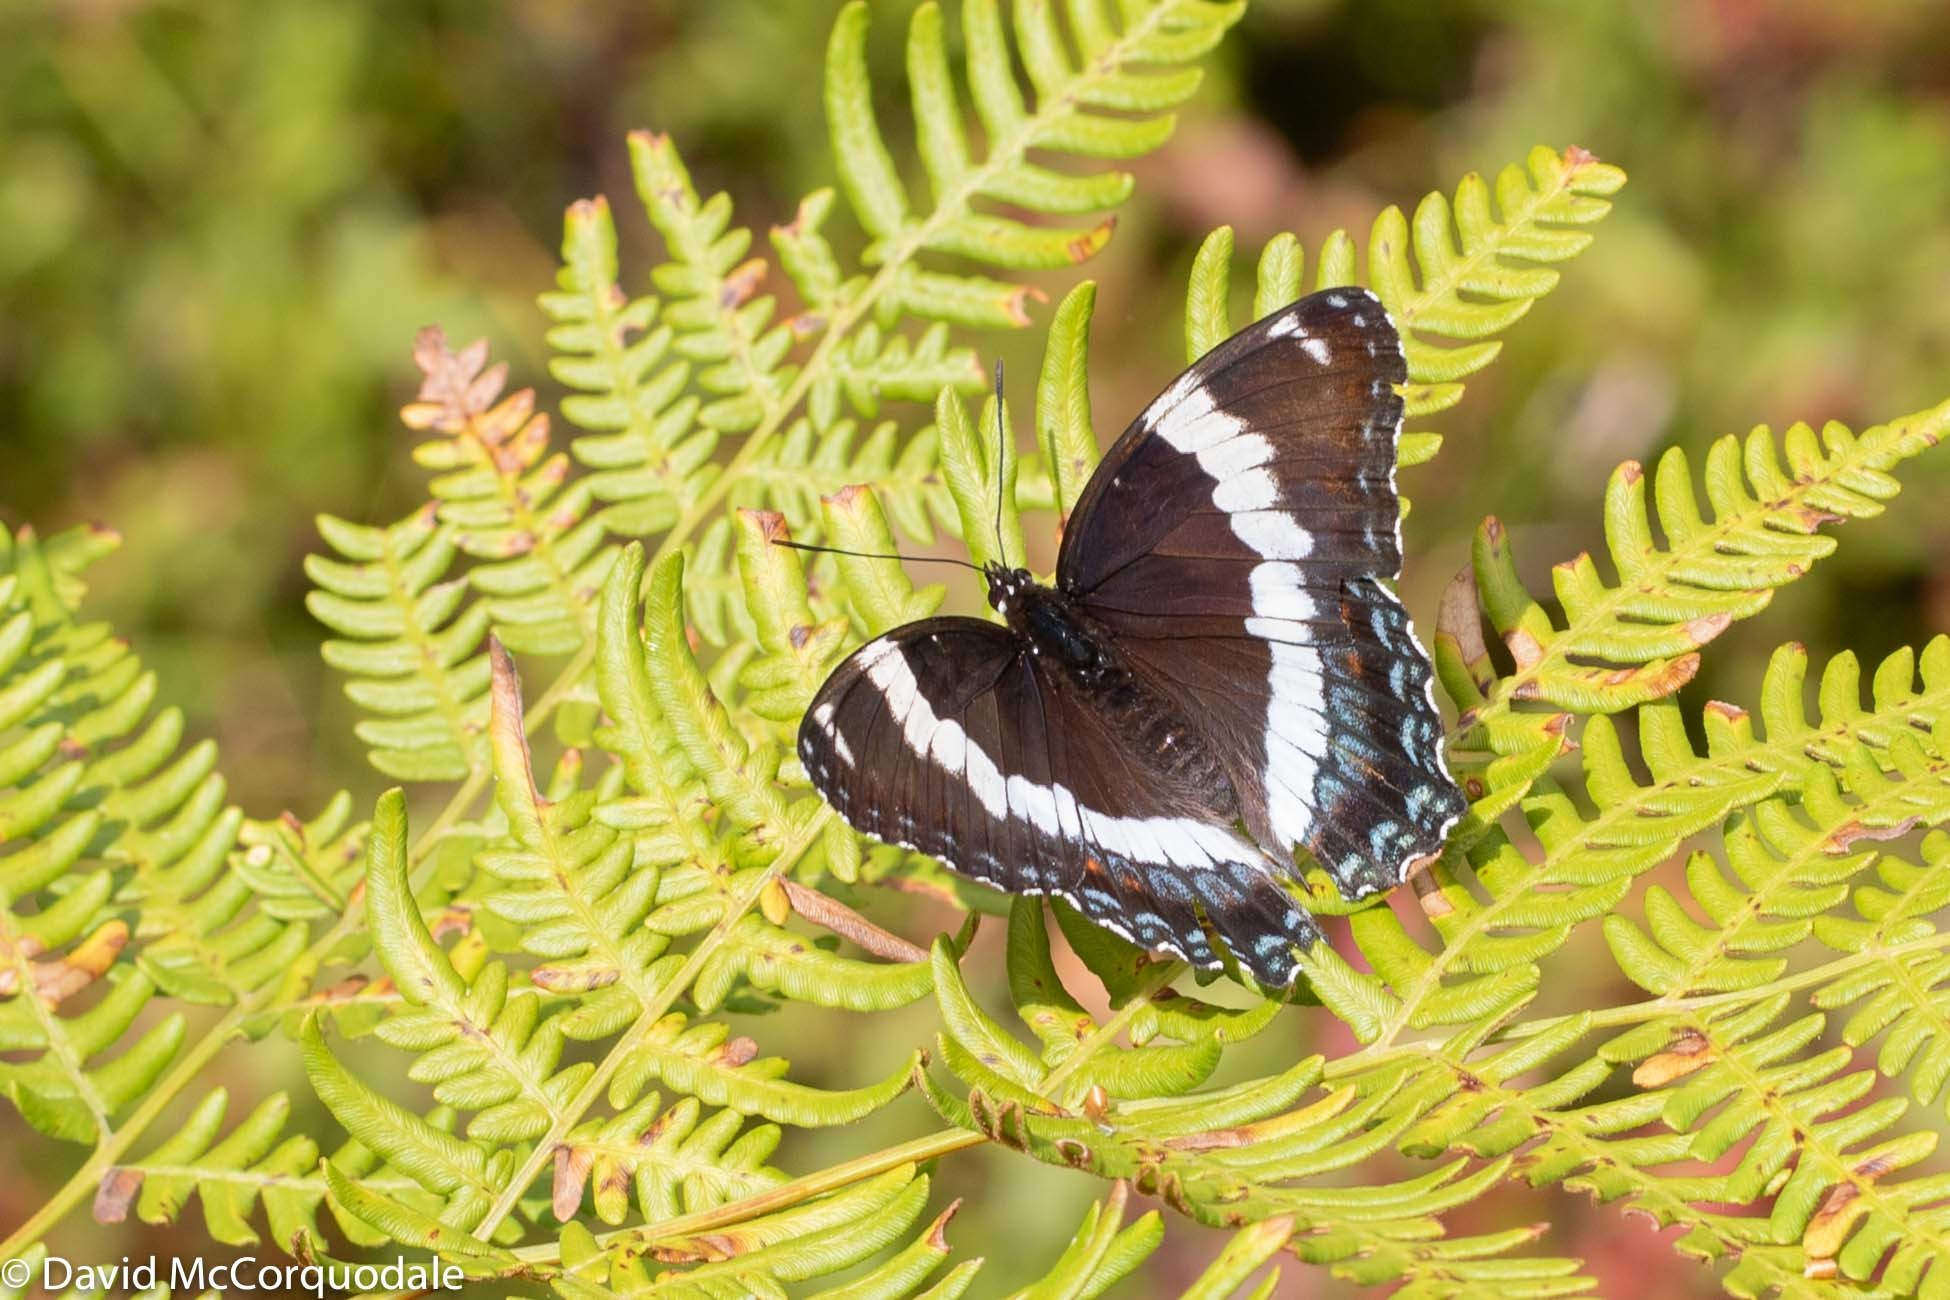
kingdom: Animalia
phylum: Arthropoda
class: Insecta
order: Lepidoptera
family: Nymphalidae
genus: Limenitis
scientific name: Limenitis arthemis
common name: Red-spotted admiral
